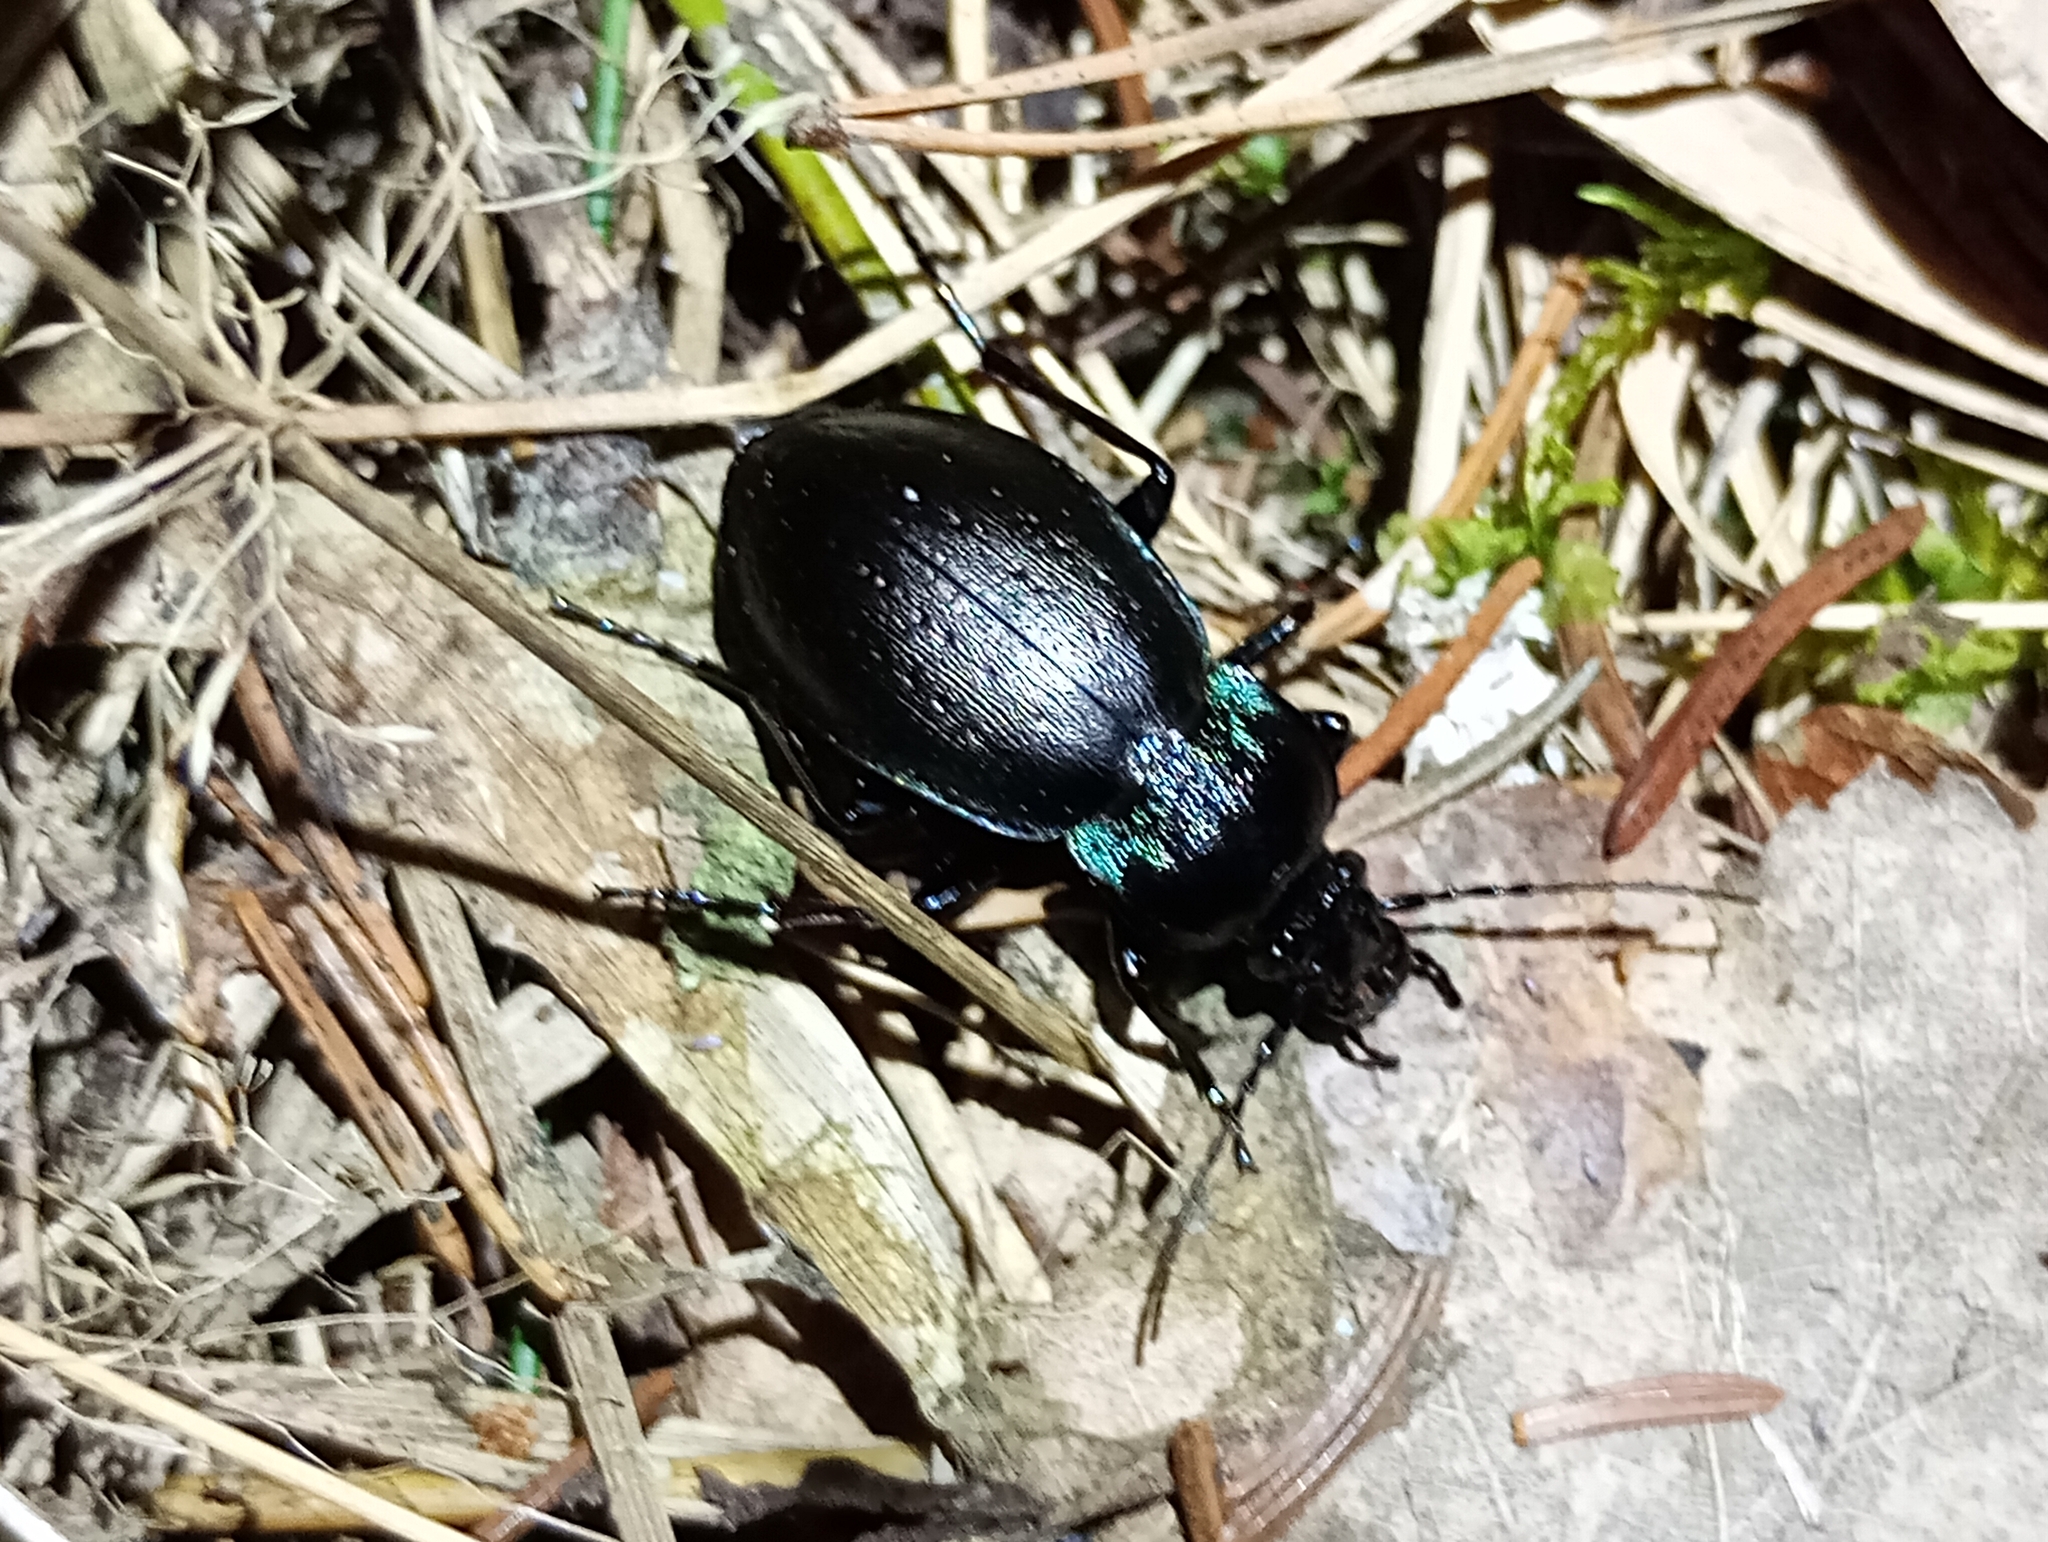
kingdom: Animalia
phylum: Arthropoda
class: Insecta
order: Coleoptera
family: Carabidae
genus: Carabus
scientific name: Carabus nemoralis
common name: European ground beetle
